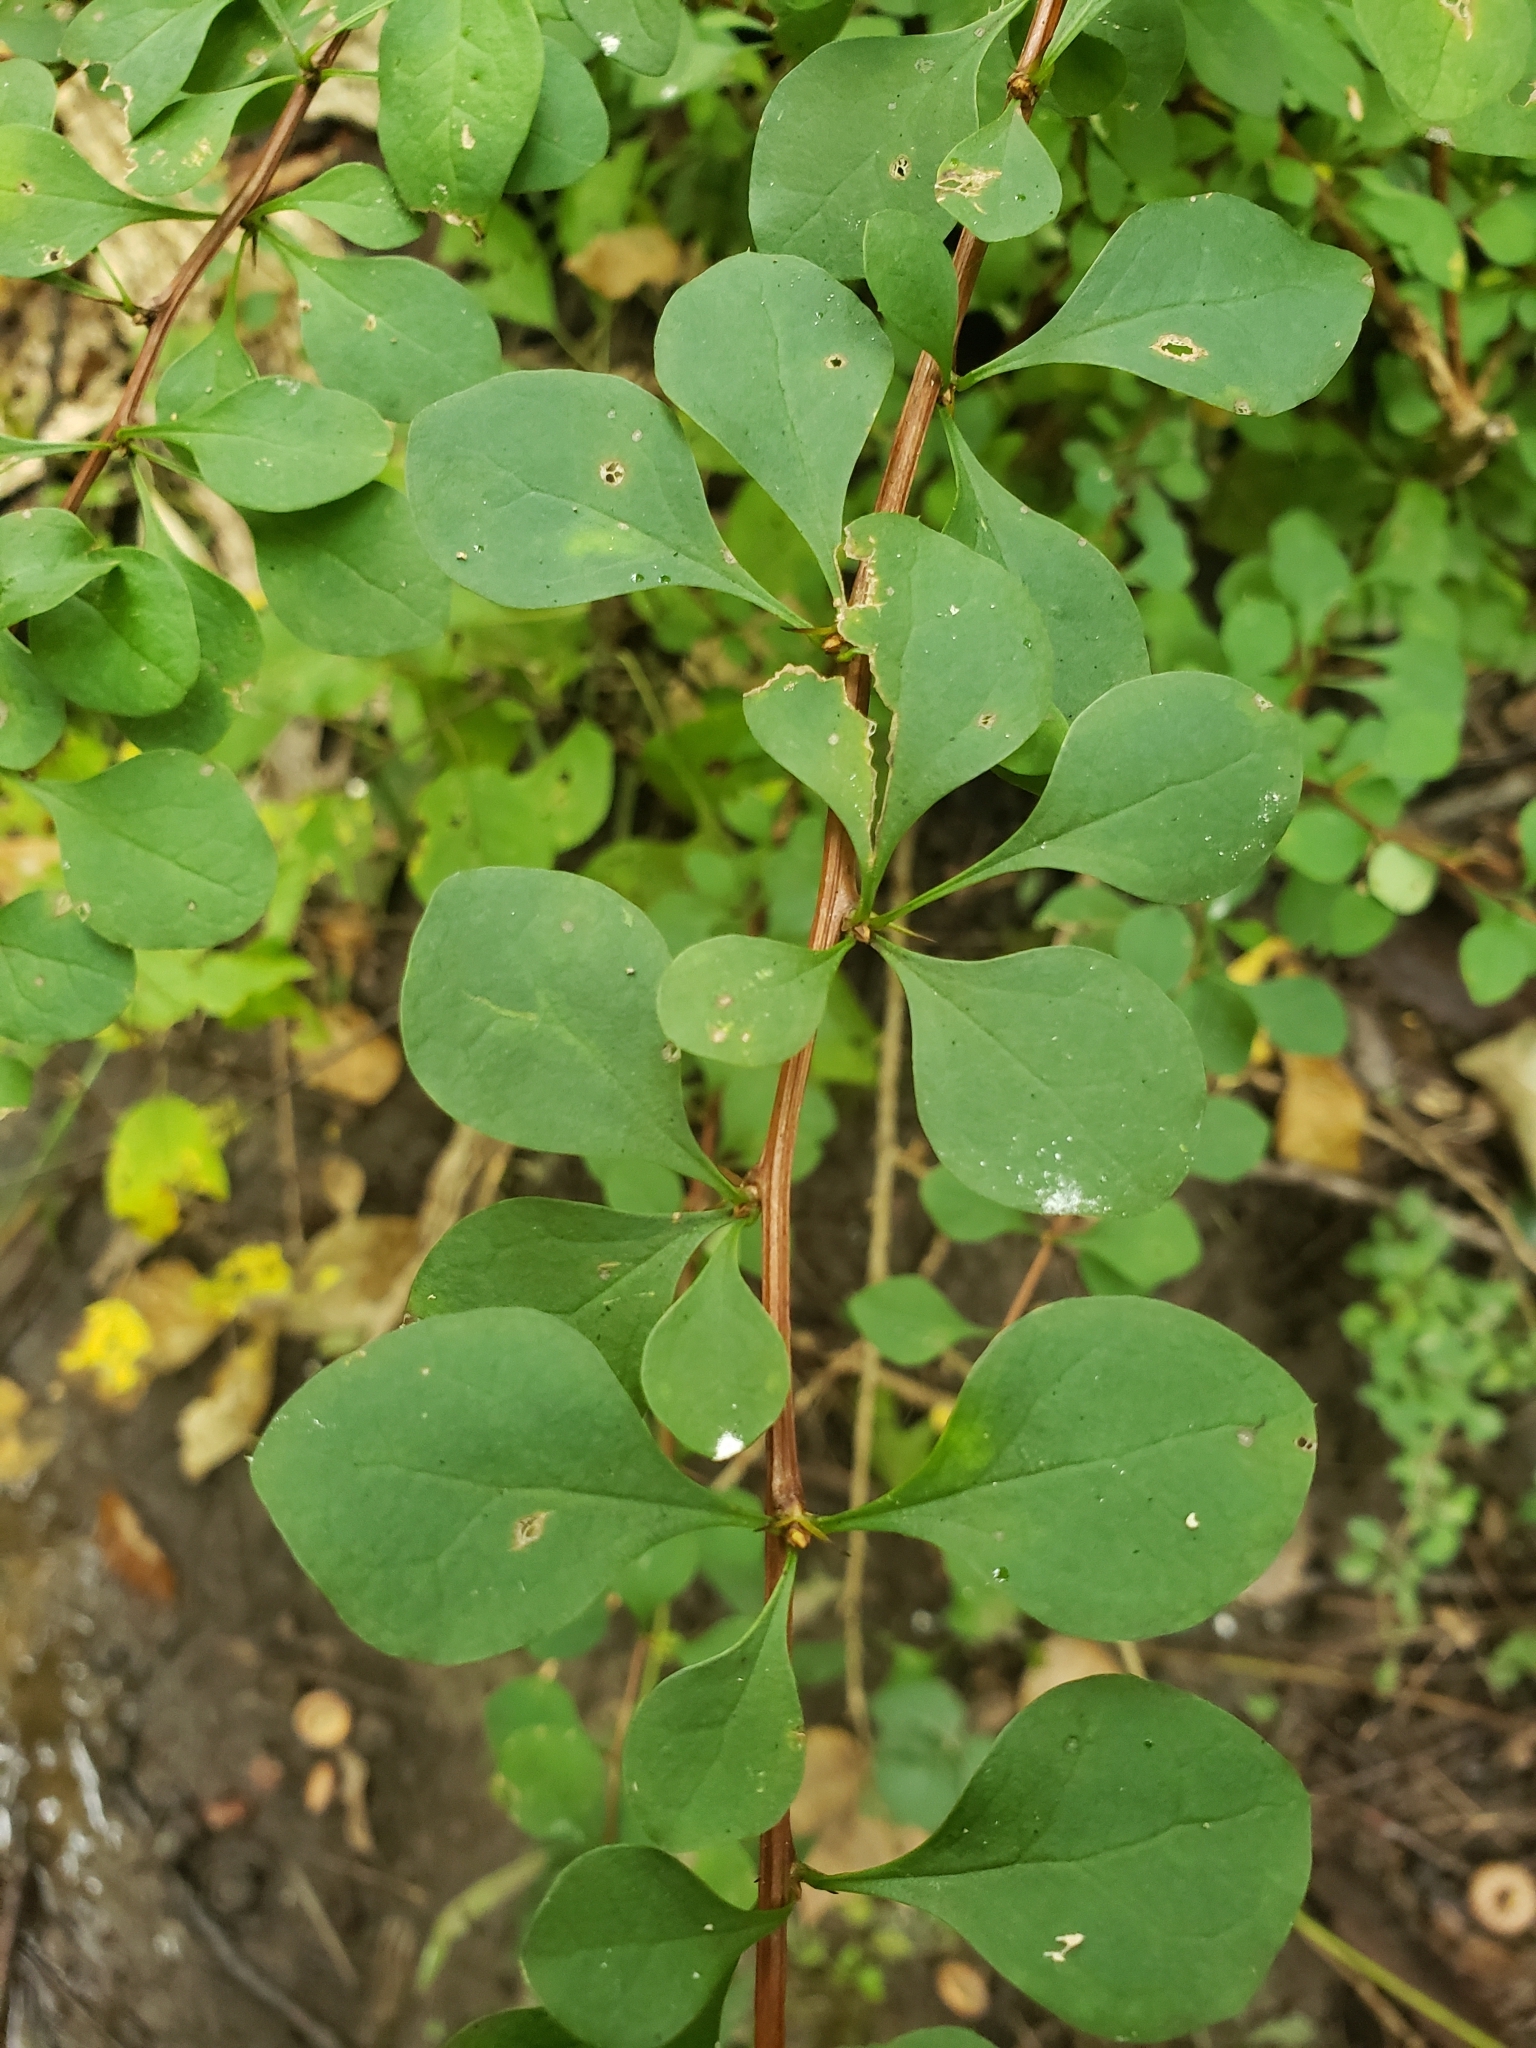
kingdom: Plantae
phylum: Tracheophyta
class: Magnoliopsida
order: Ranunculales
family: Berberidaceae
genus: Berberis
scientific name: Berberis thunbergii
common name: Japanese barberry
